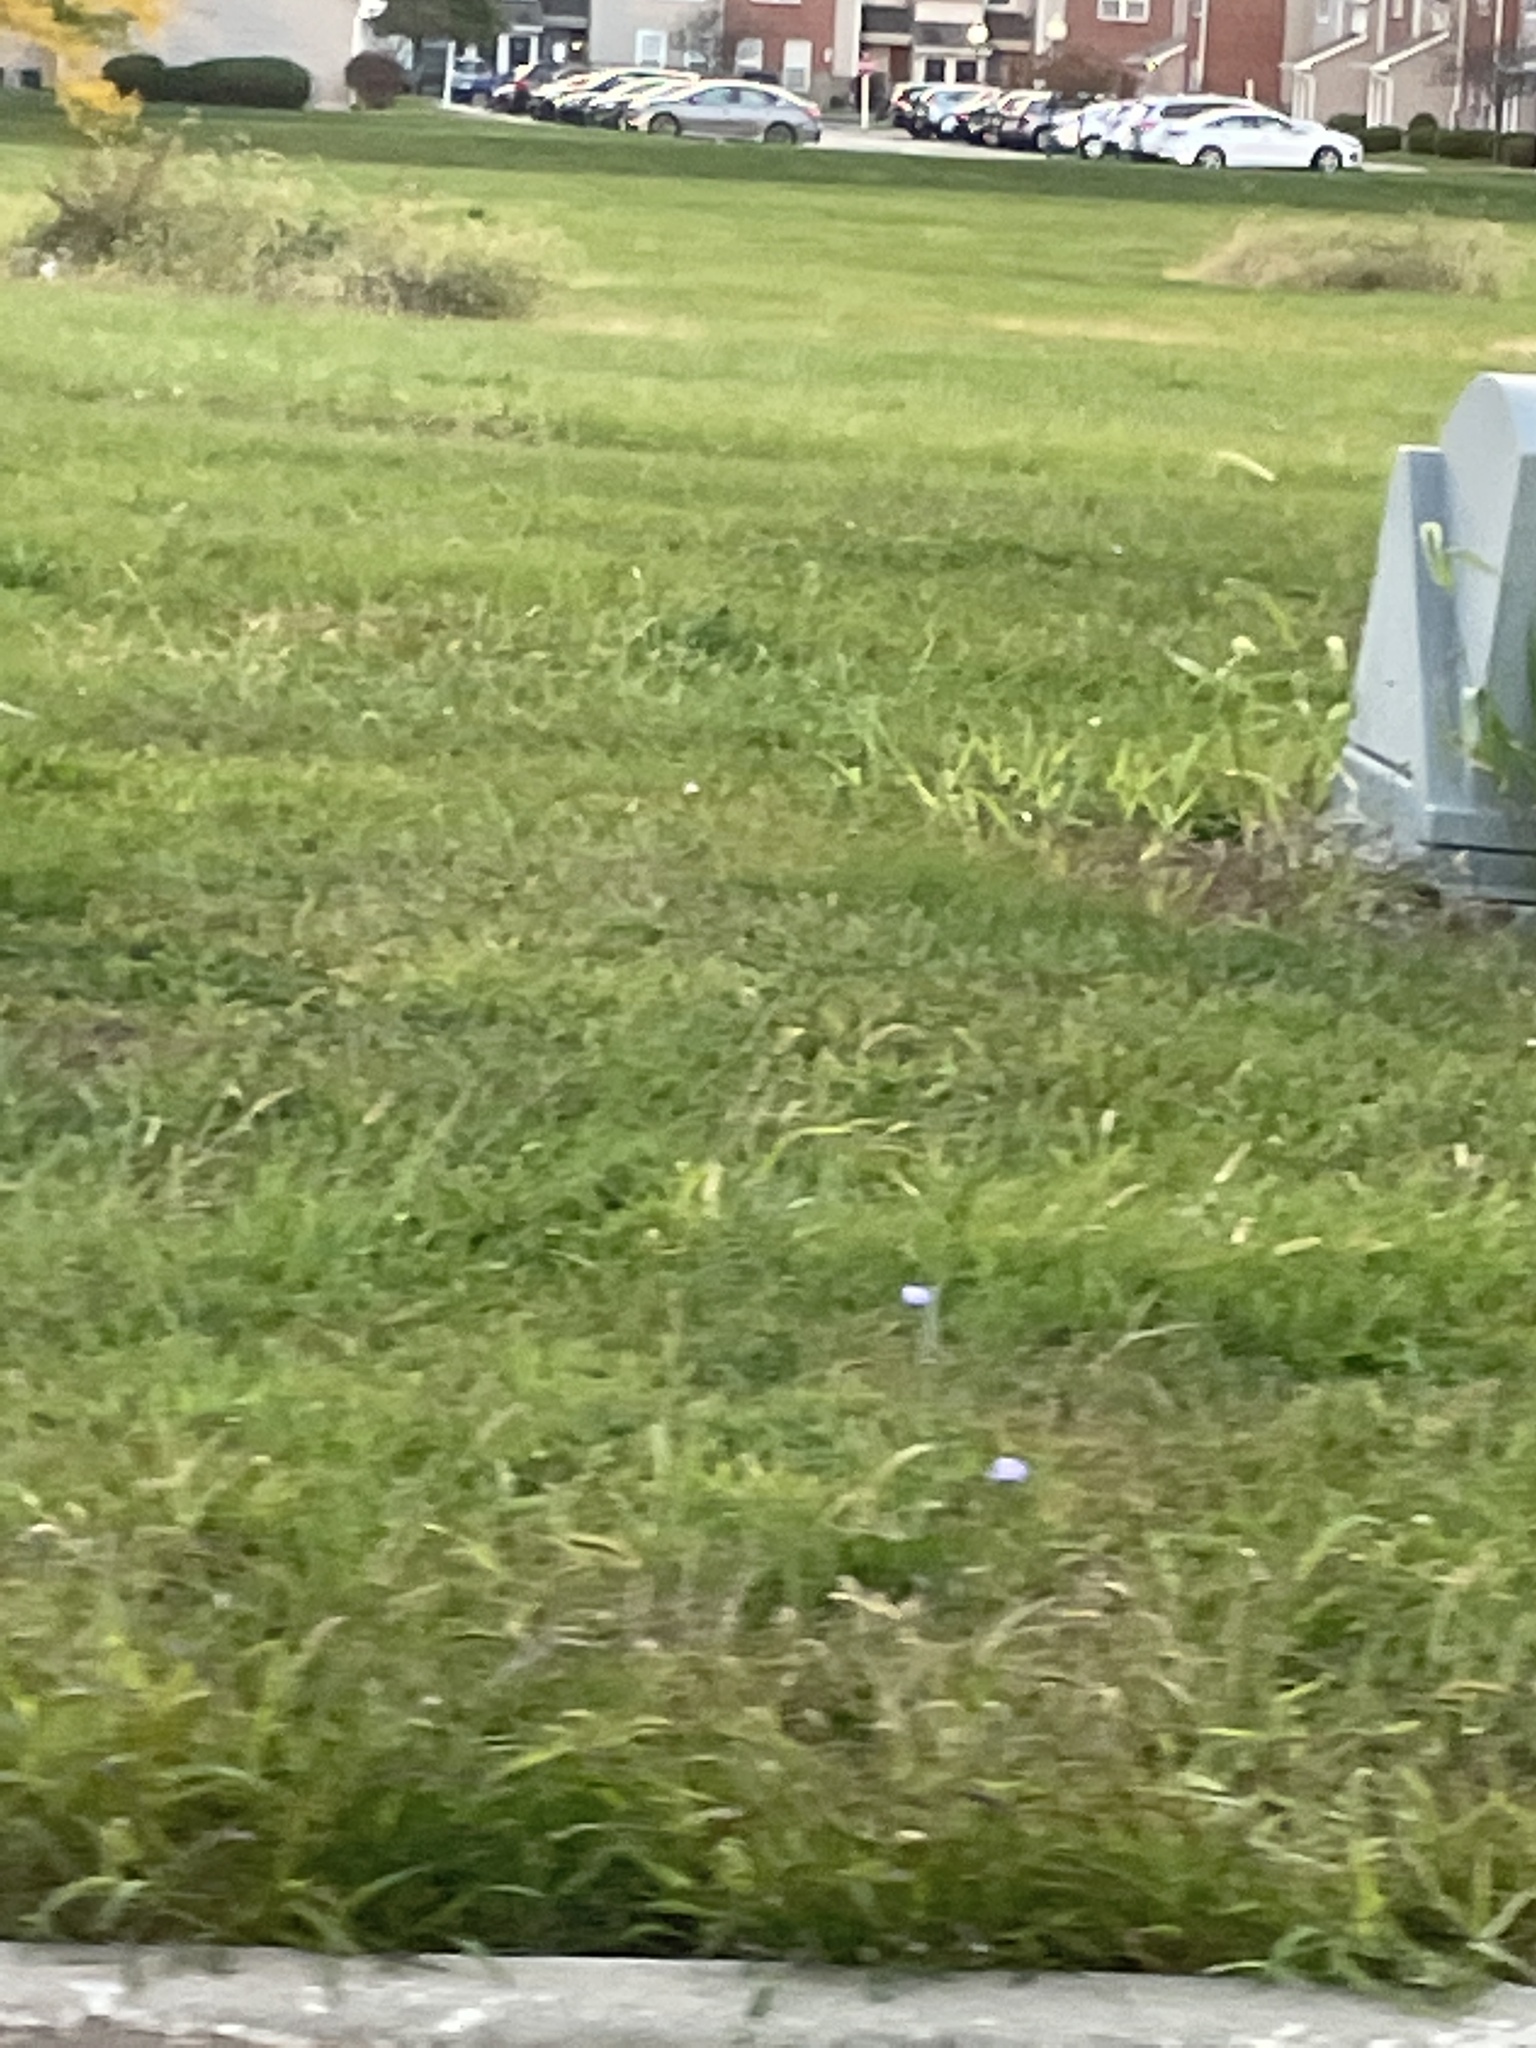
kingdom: Plantae
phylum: Tracheophyta
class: Magnoliopsida
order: Asterales
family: Asteraceae
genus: Cichorium
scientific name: Cichorium intybus
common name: Chicory
